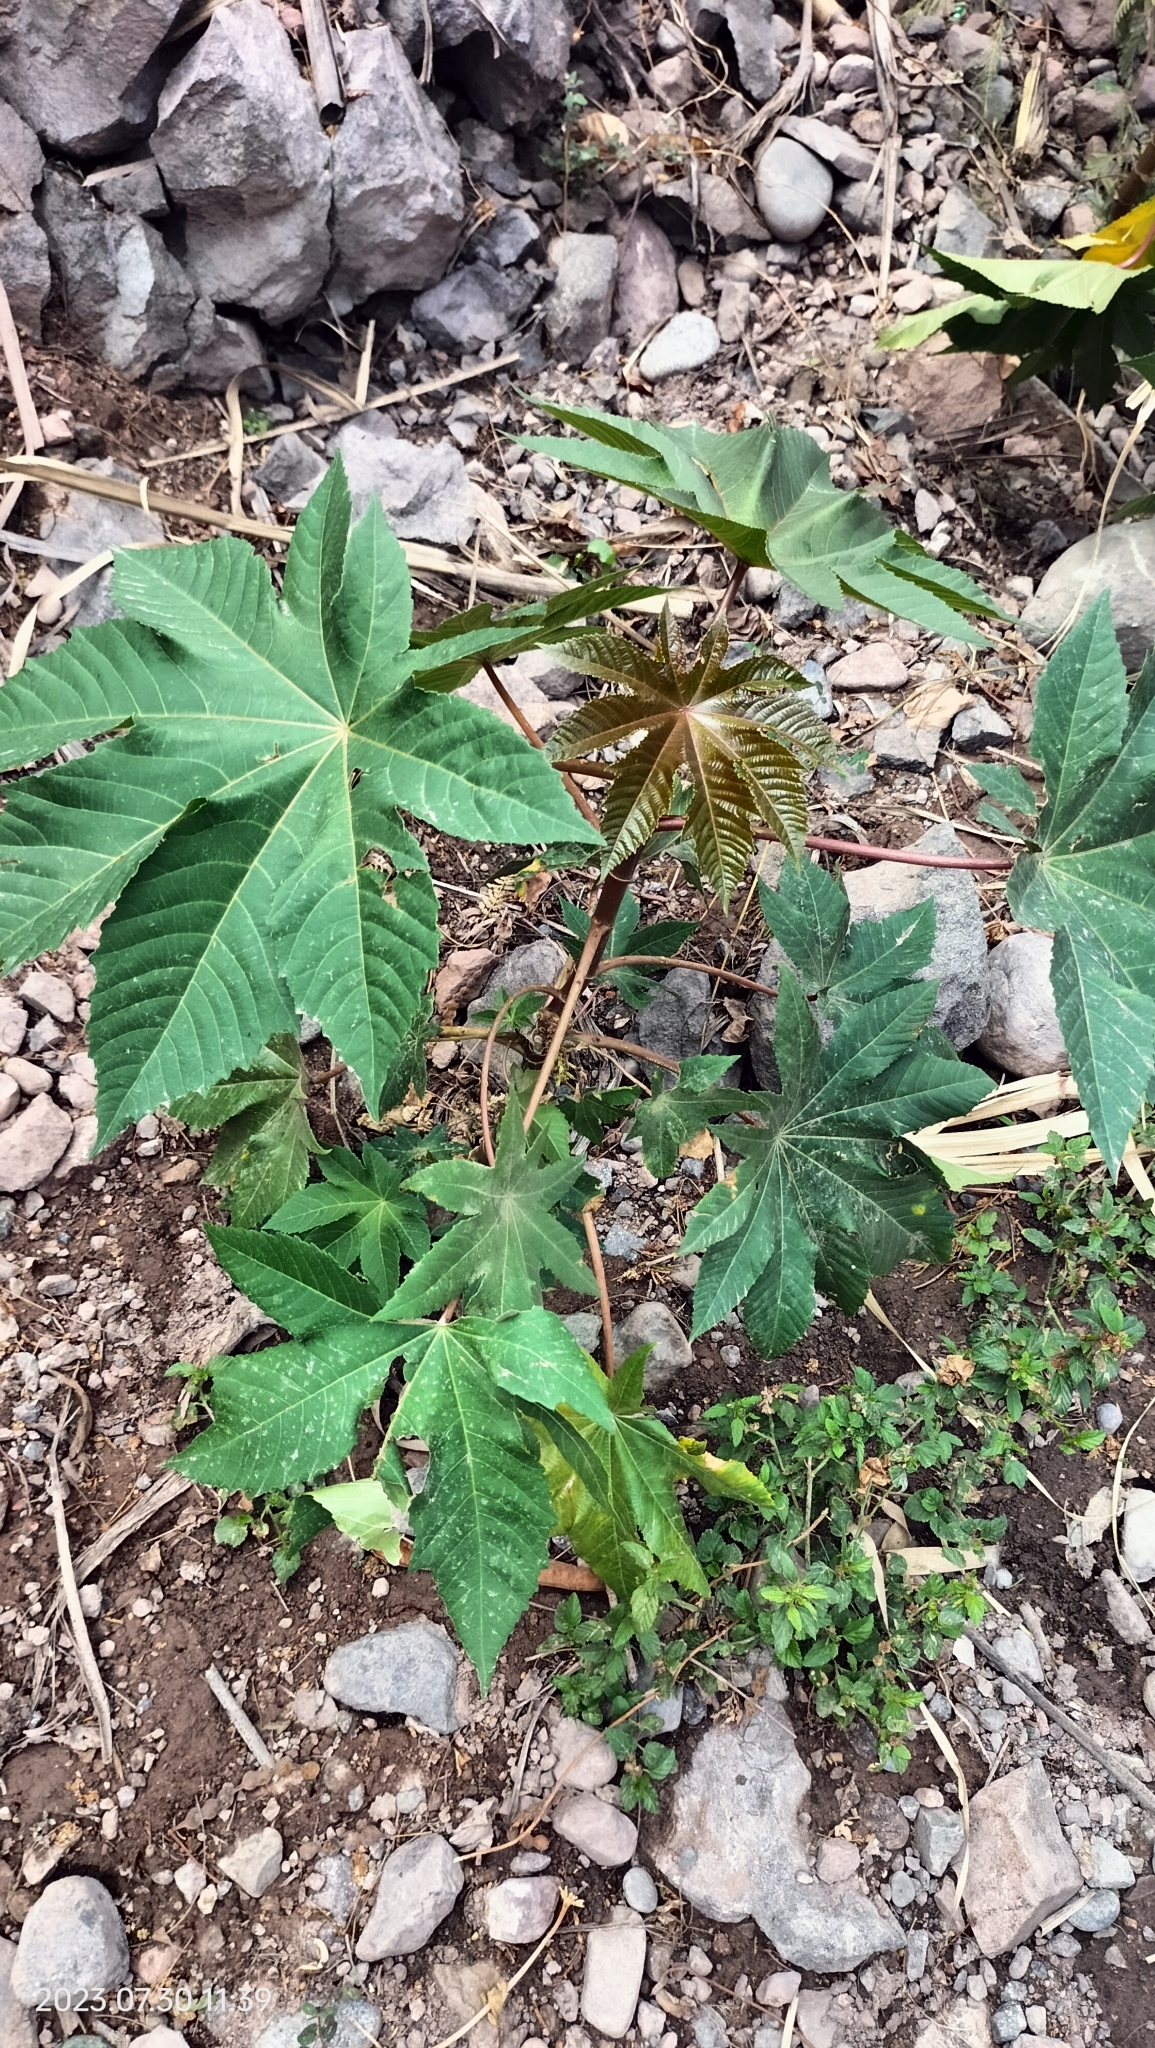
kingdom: Plantae
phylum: Tracheophyta
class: Magnoliopsida
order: Malpighiales
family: Euphorbiaceae
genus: Ricinus
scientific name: Ricinus communis
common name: Castor-oil-plant
